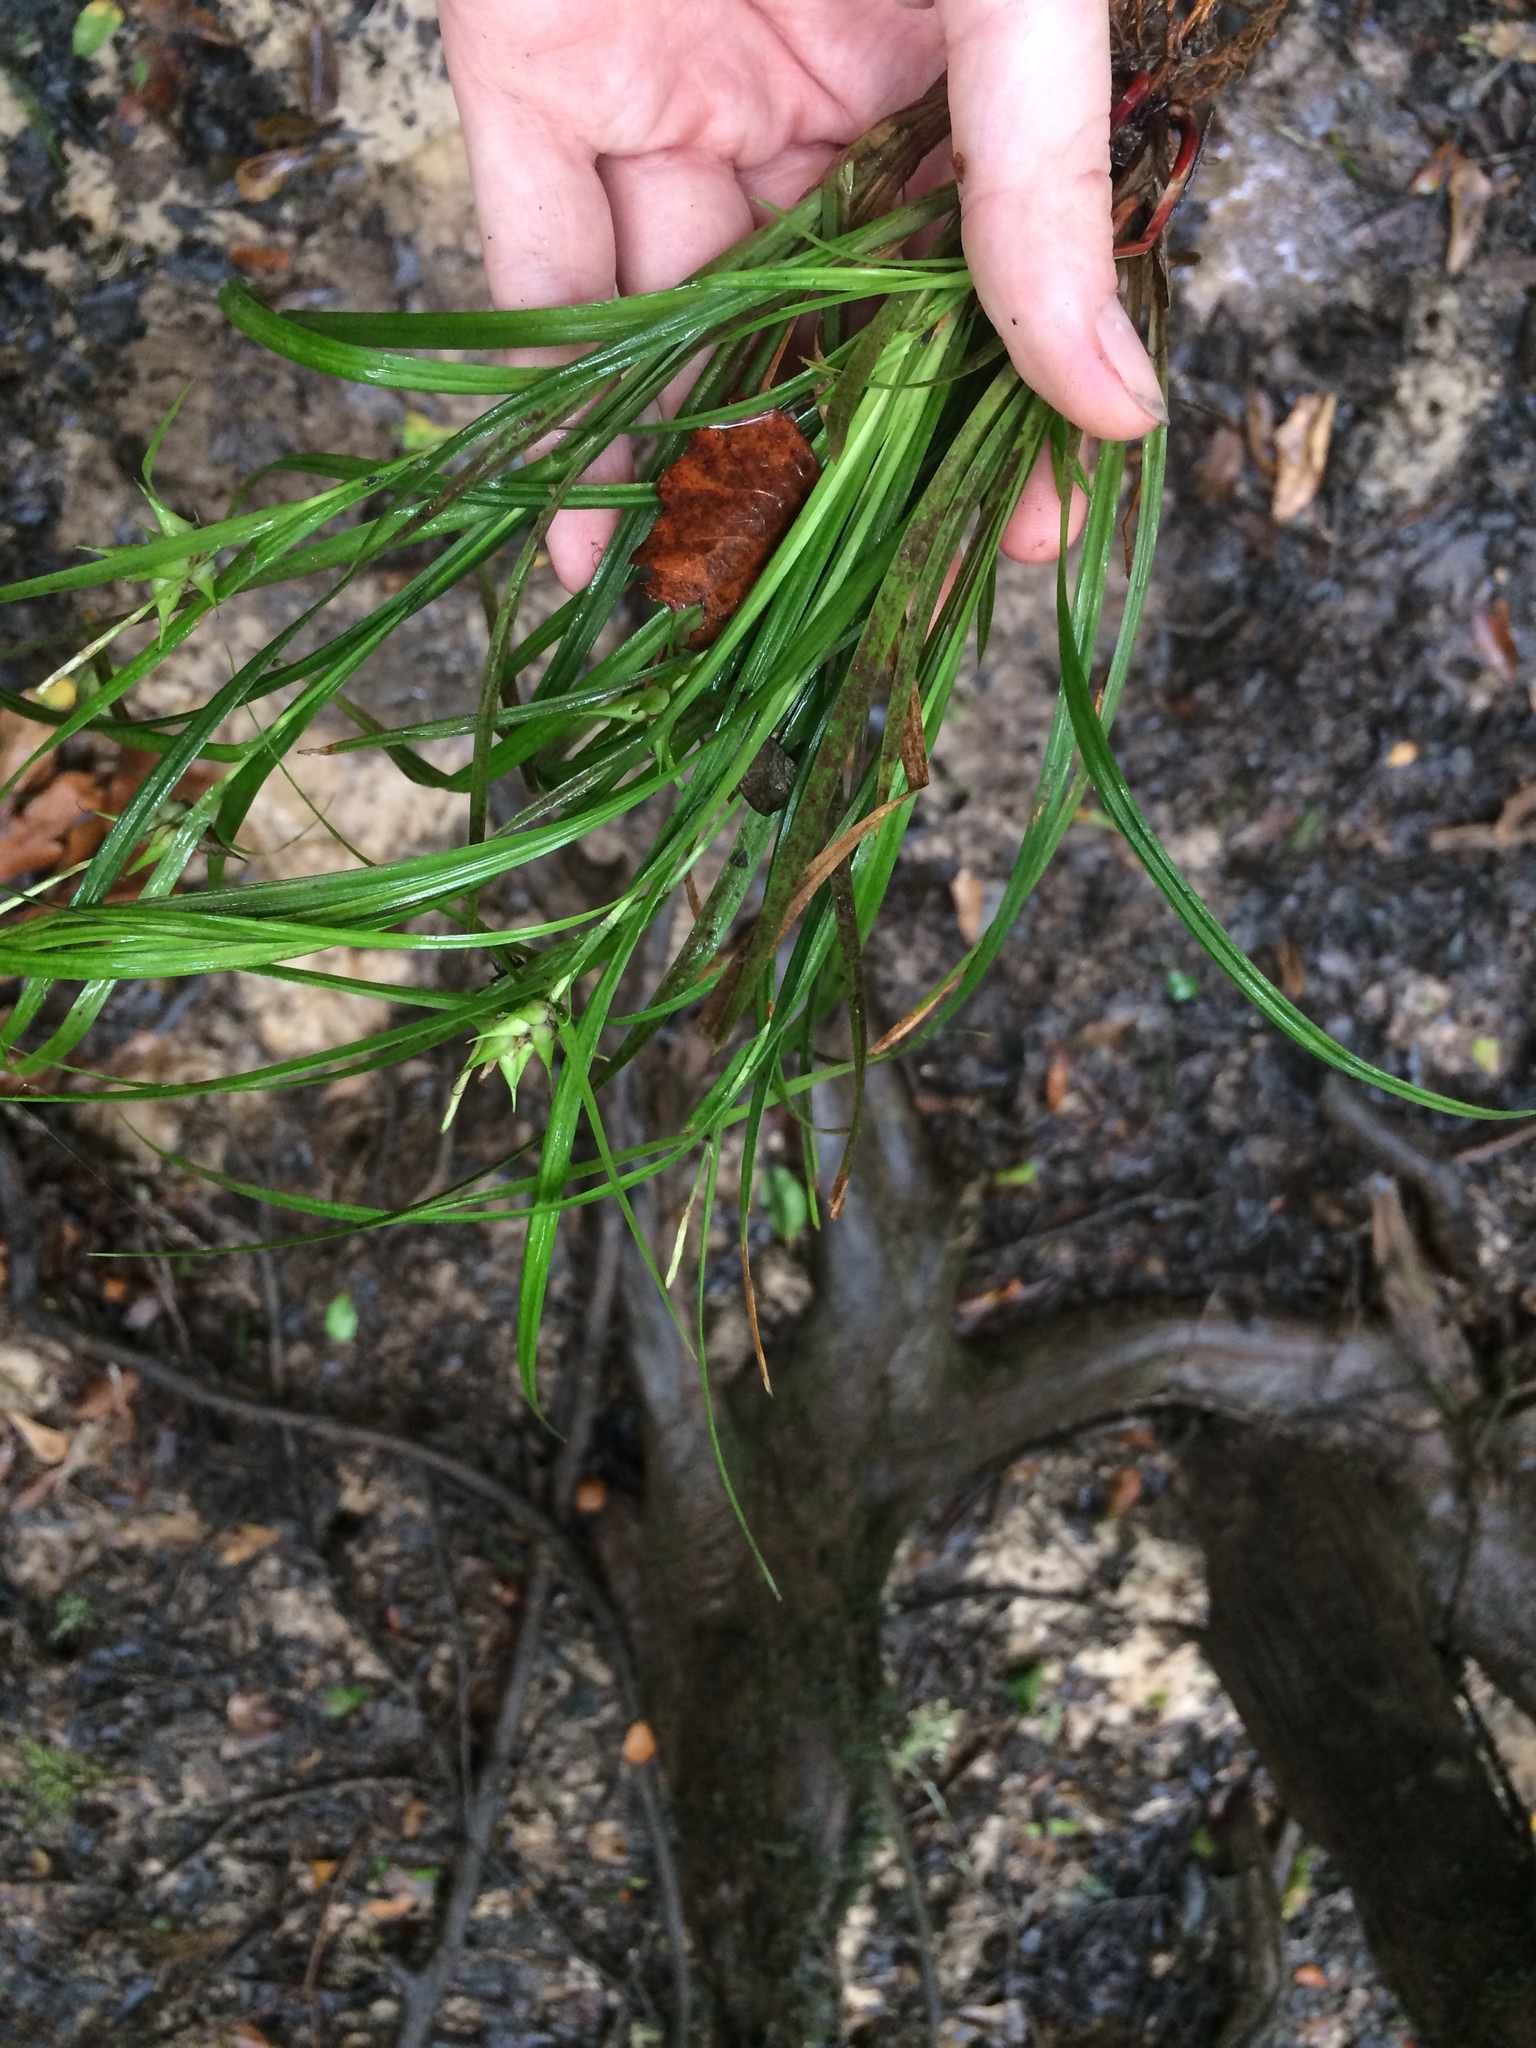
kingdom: Plantae
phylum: Tracheophyta
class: Liliopsida
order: Poales
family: Cyperaceae
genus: Carex
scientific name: Carex intumescens
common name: Greater bladder sedge
